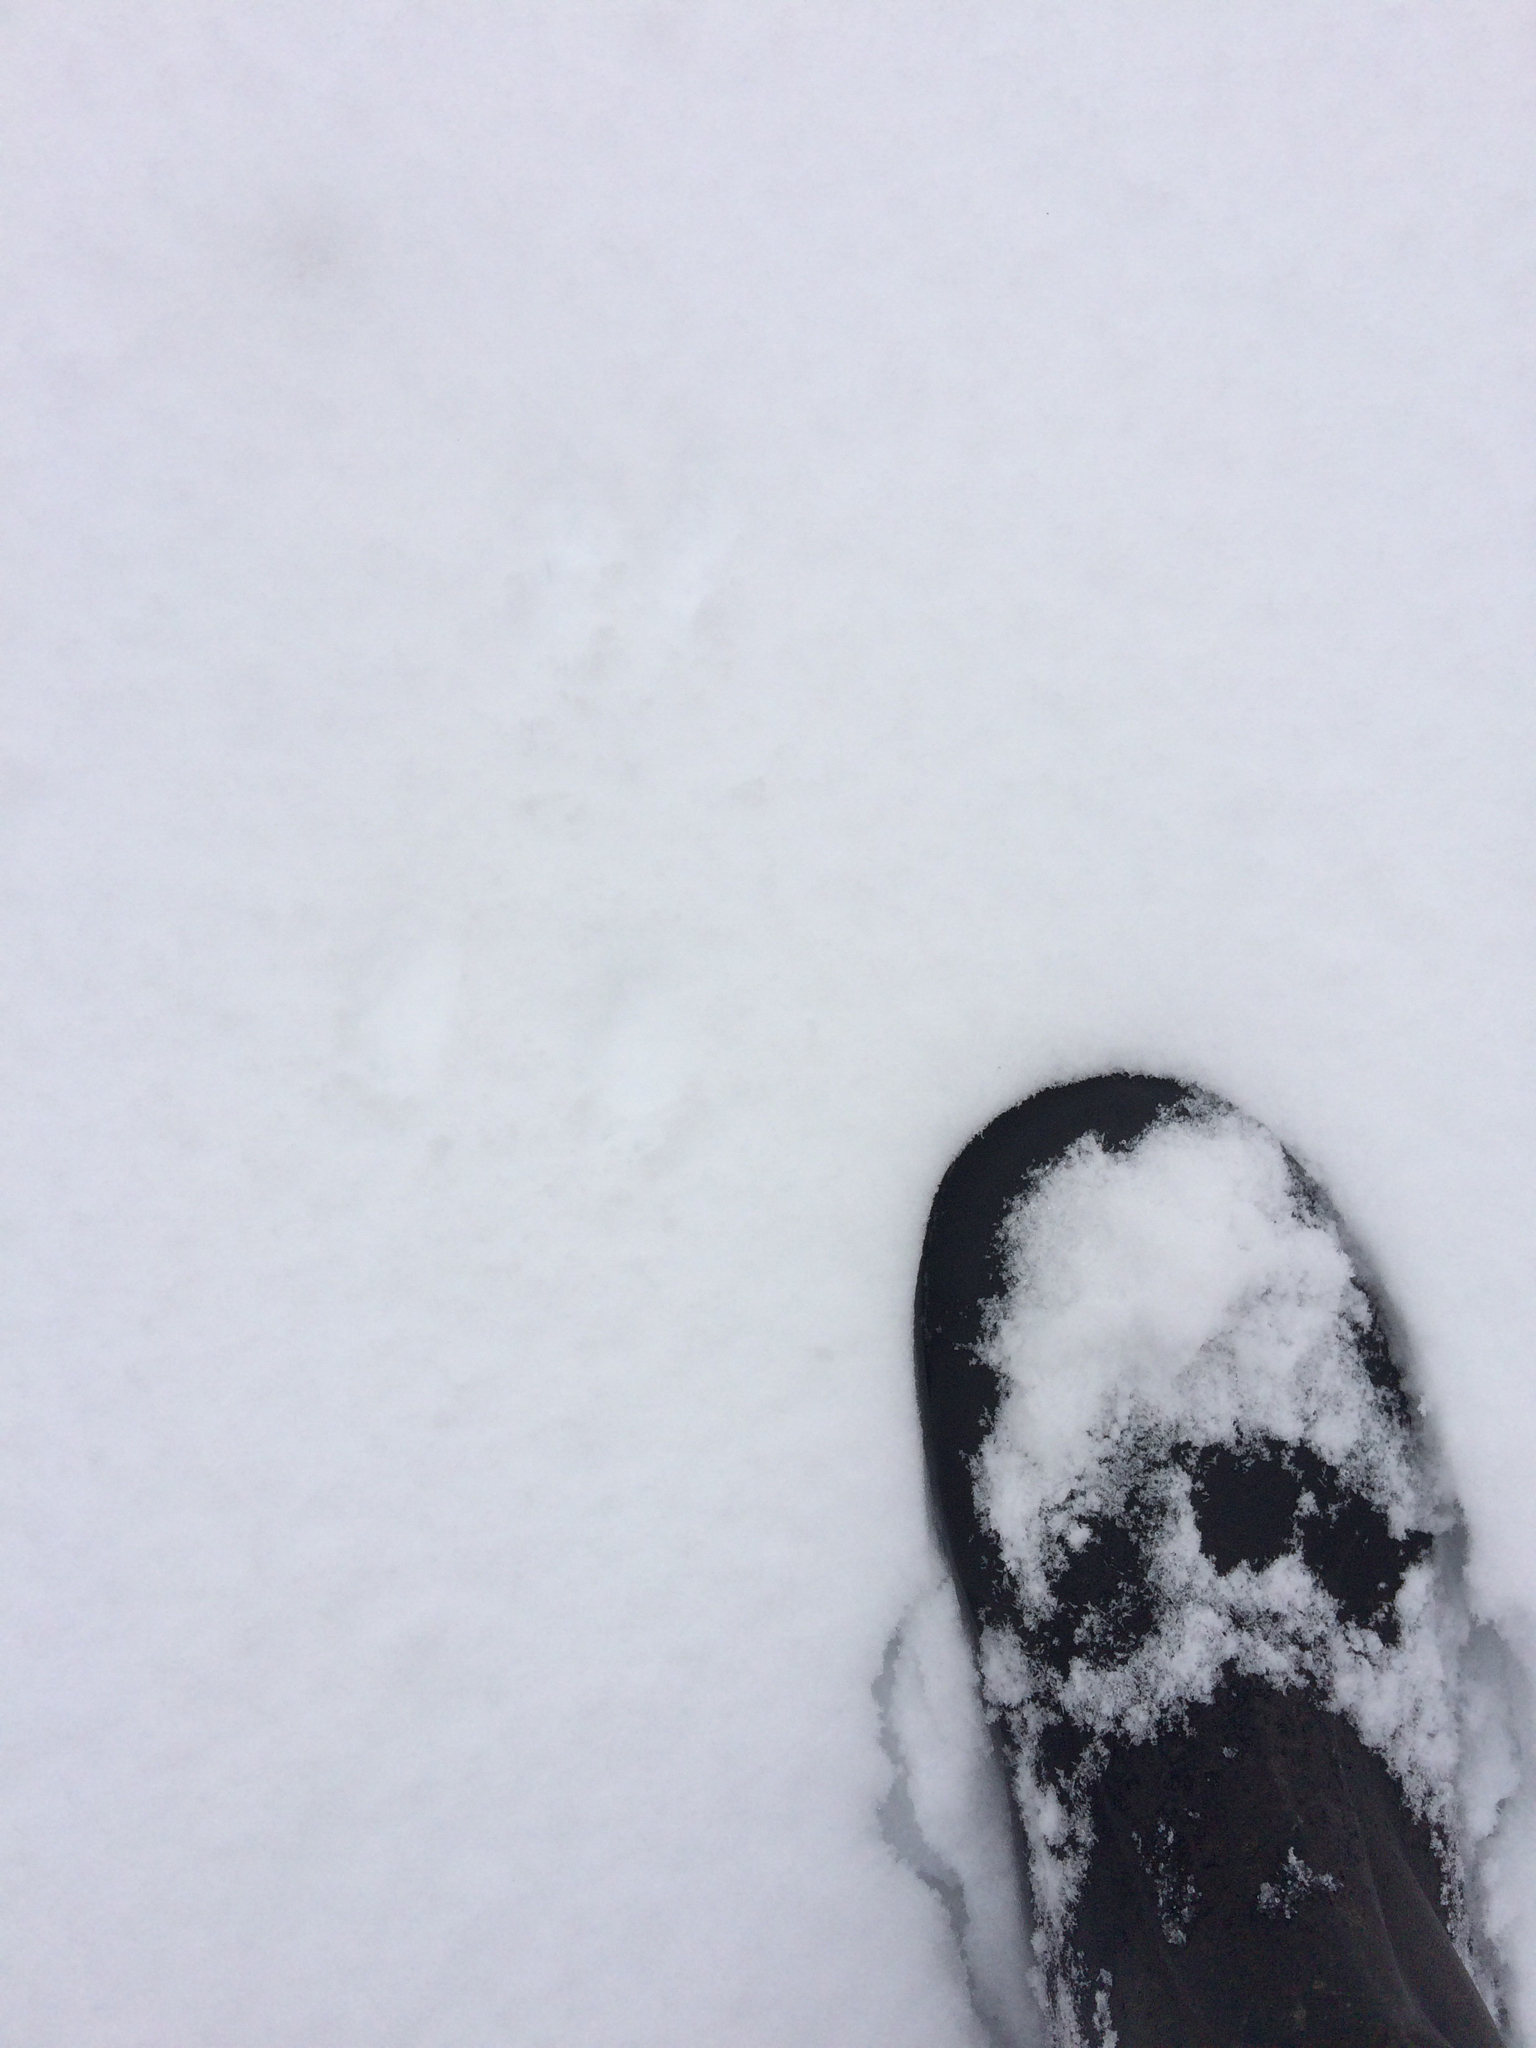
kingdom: Animalia
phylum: Chordata
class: Mammalia
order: Rodentia
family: Sciuridae
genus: Tamiasciurus
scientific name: Tamiasciurus hudsonicus
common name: Red squirrel
